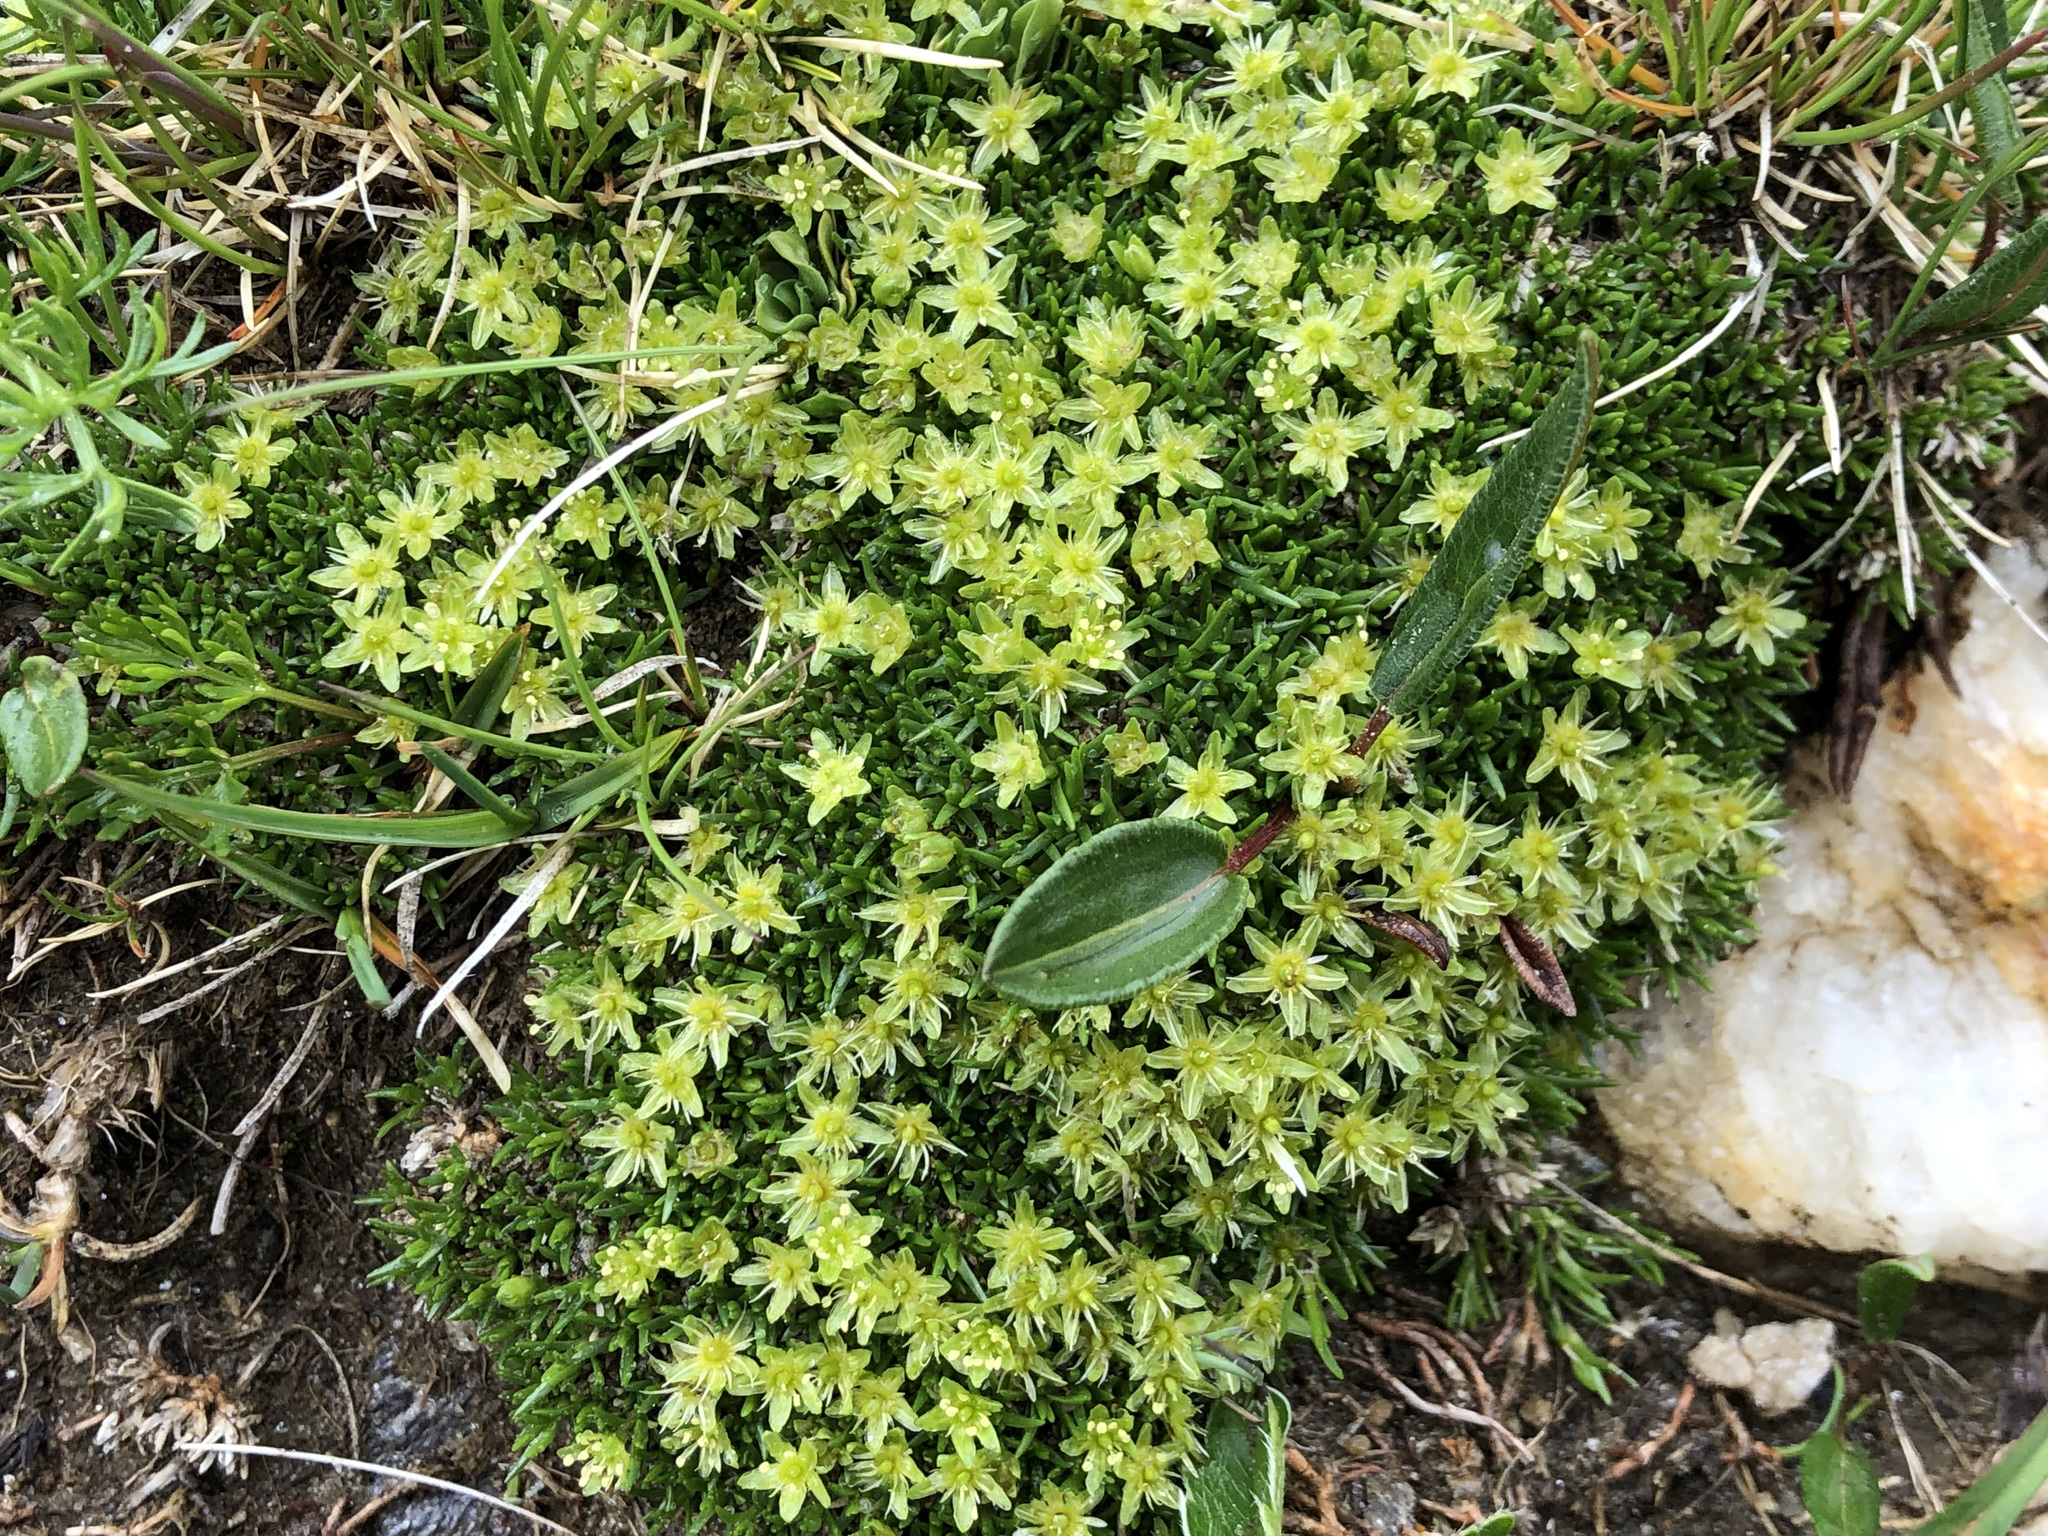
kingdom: Plantae
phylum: Tracheophyta
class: Magnoliopsida
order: Caryophyllales
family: Caryophyllaceae
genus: Cherleria
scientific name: Cherleria sedoides
